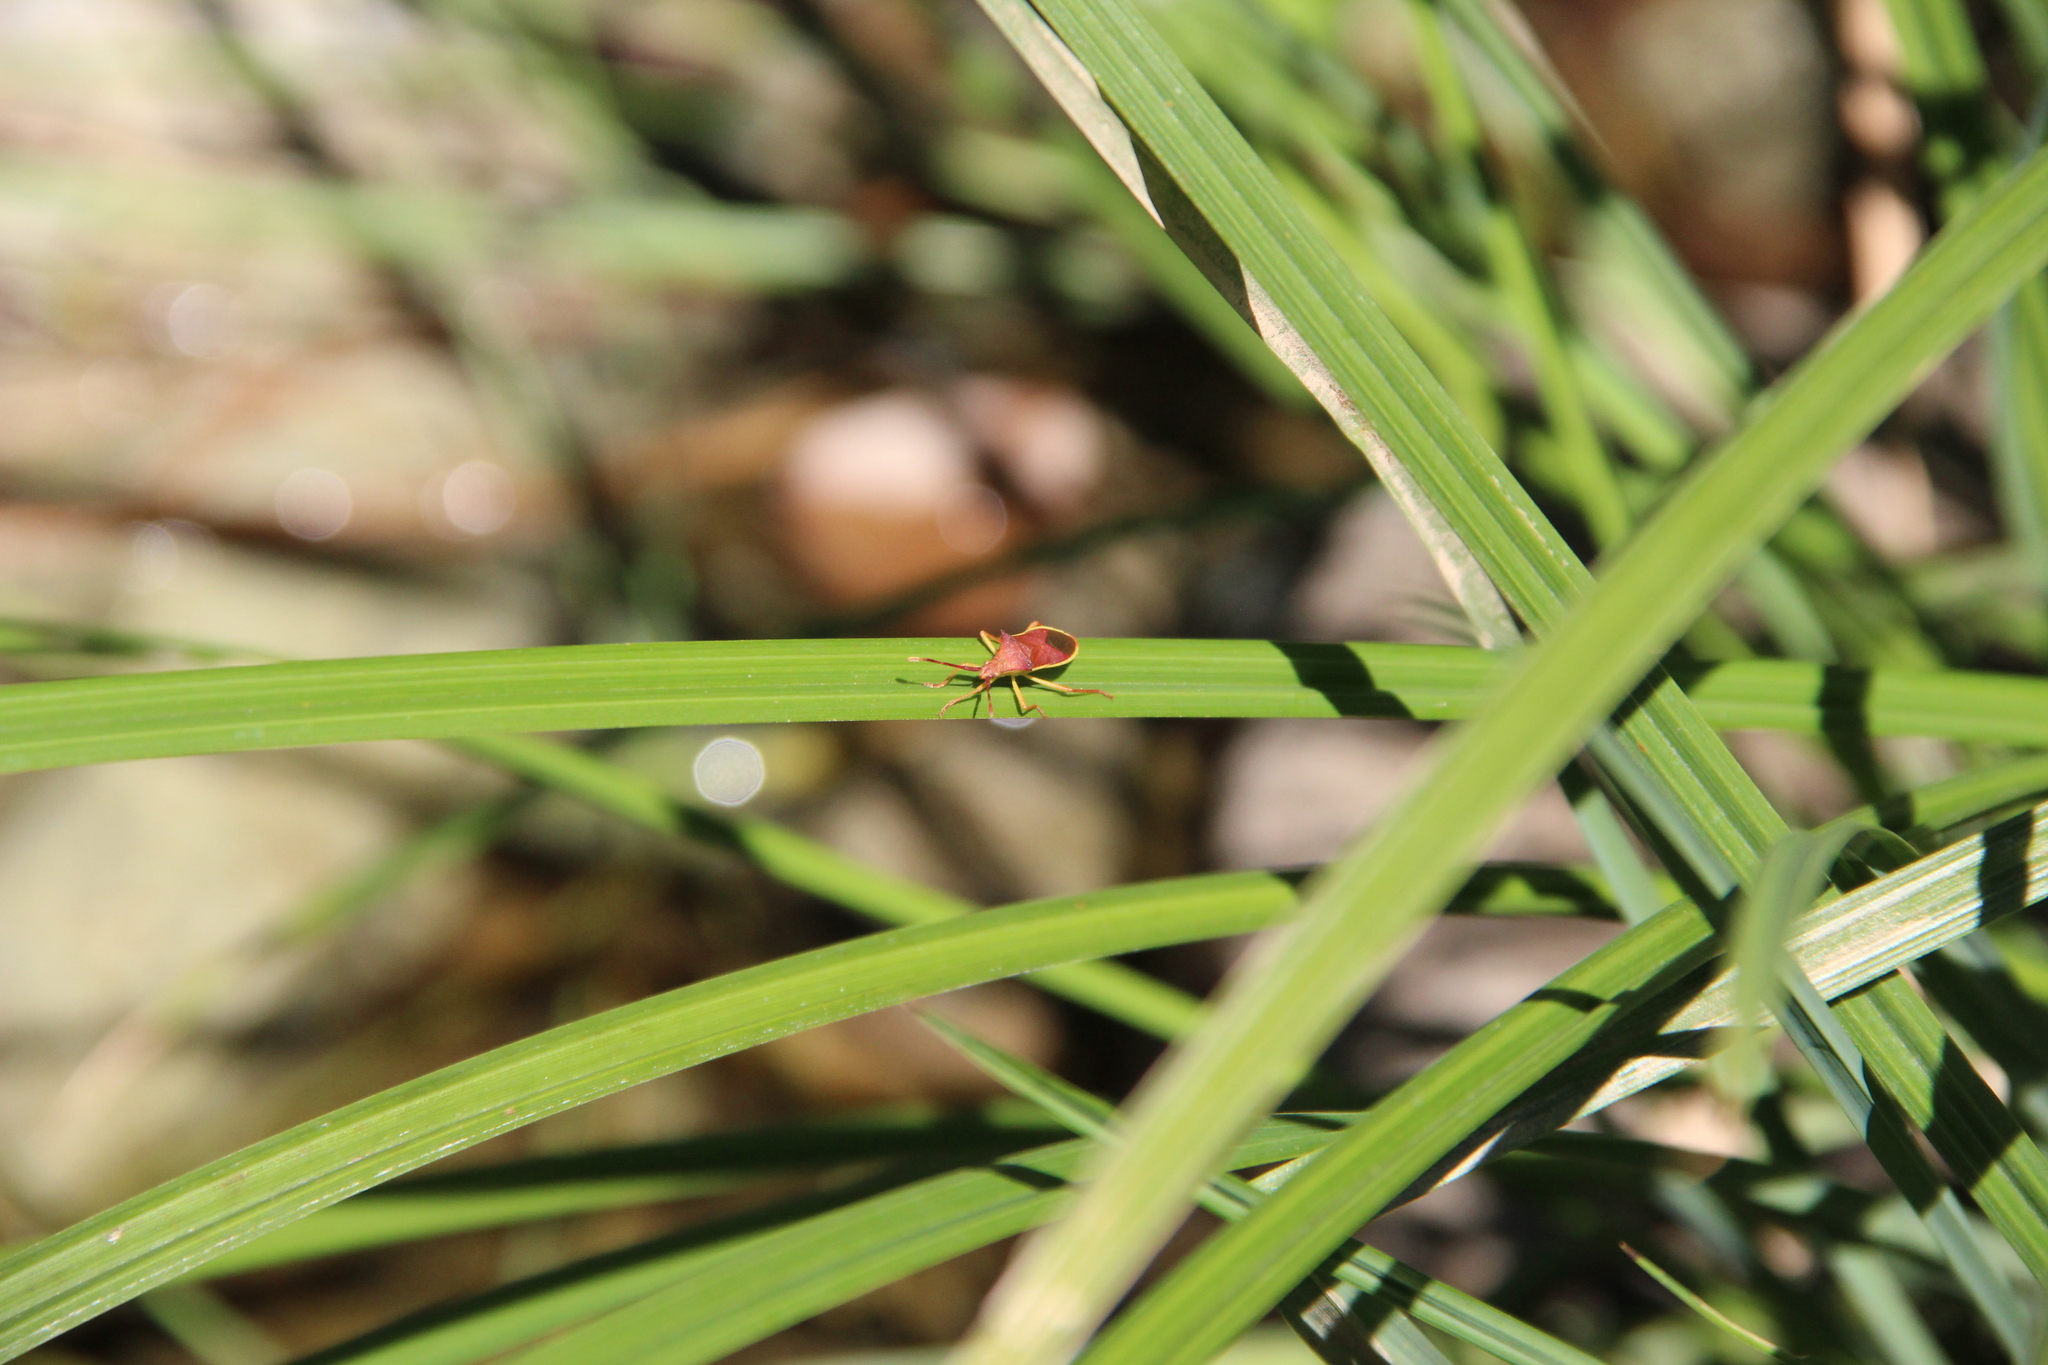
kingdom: Animalia
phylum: Arthropoda
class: Insecta
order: Hemiptera
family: Coreidae
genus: Gonocerus
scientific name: Gonocerus insidiator
